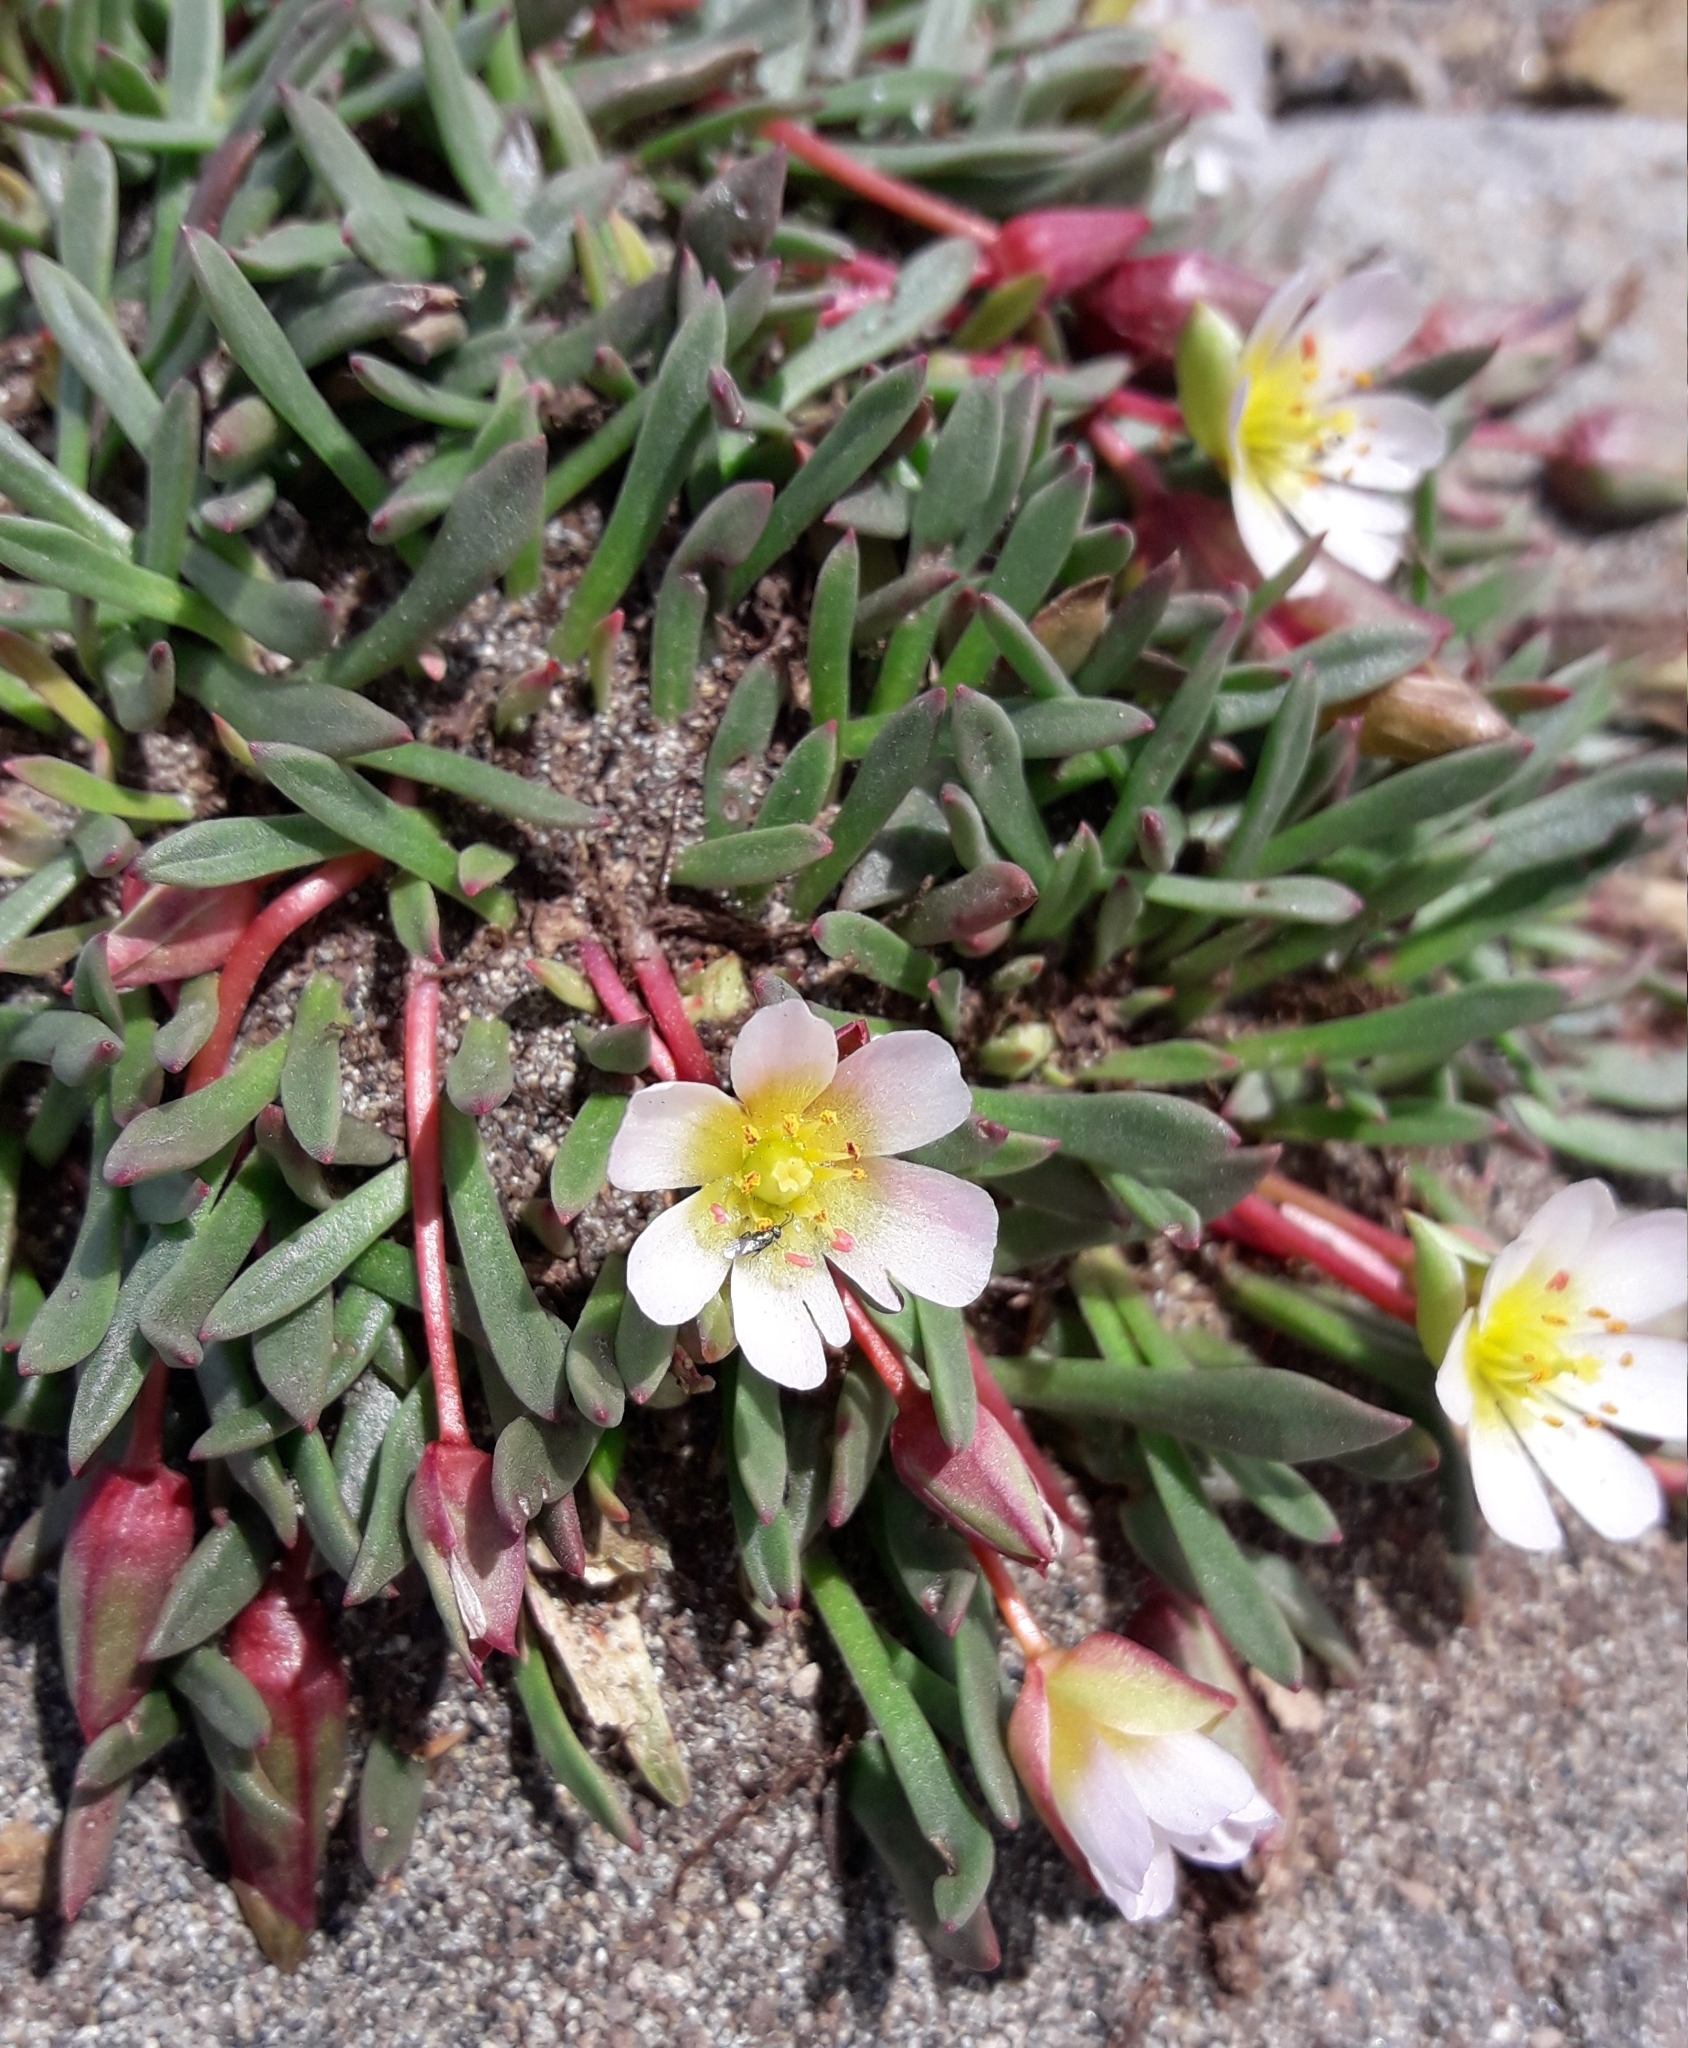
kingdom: Plantae
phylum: Tracheophyta
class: Magnoliopsida
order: Caryophyllales
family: Montiaceae
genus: Calandrinia
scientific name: Calandrinia caespitosa
